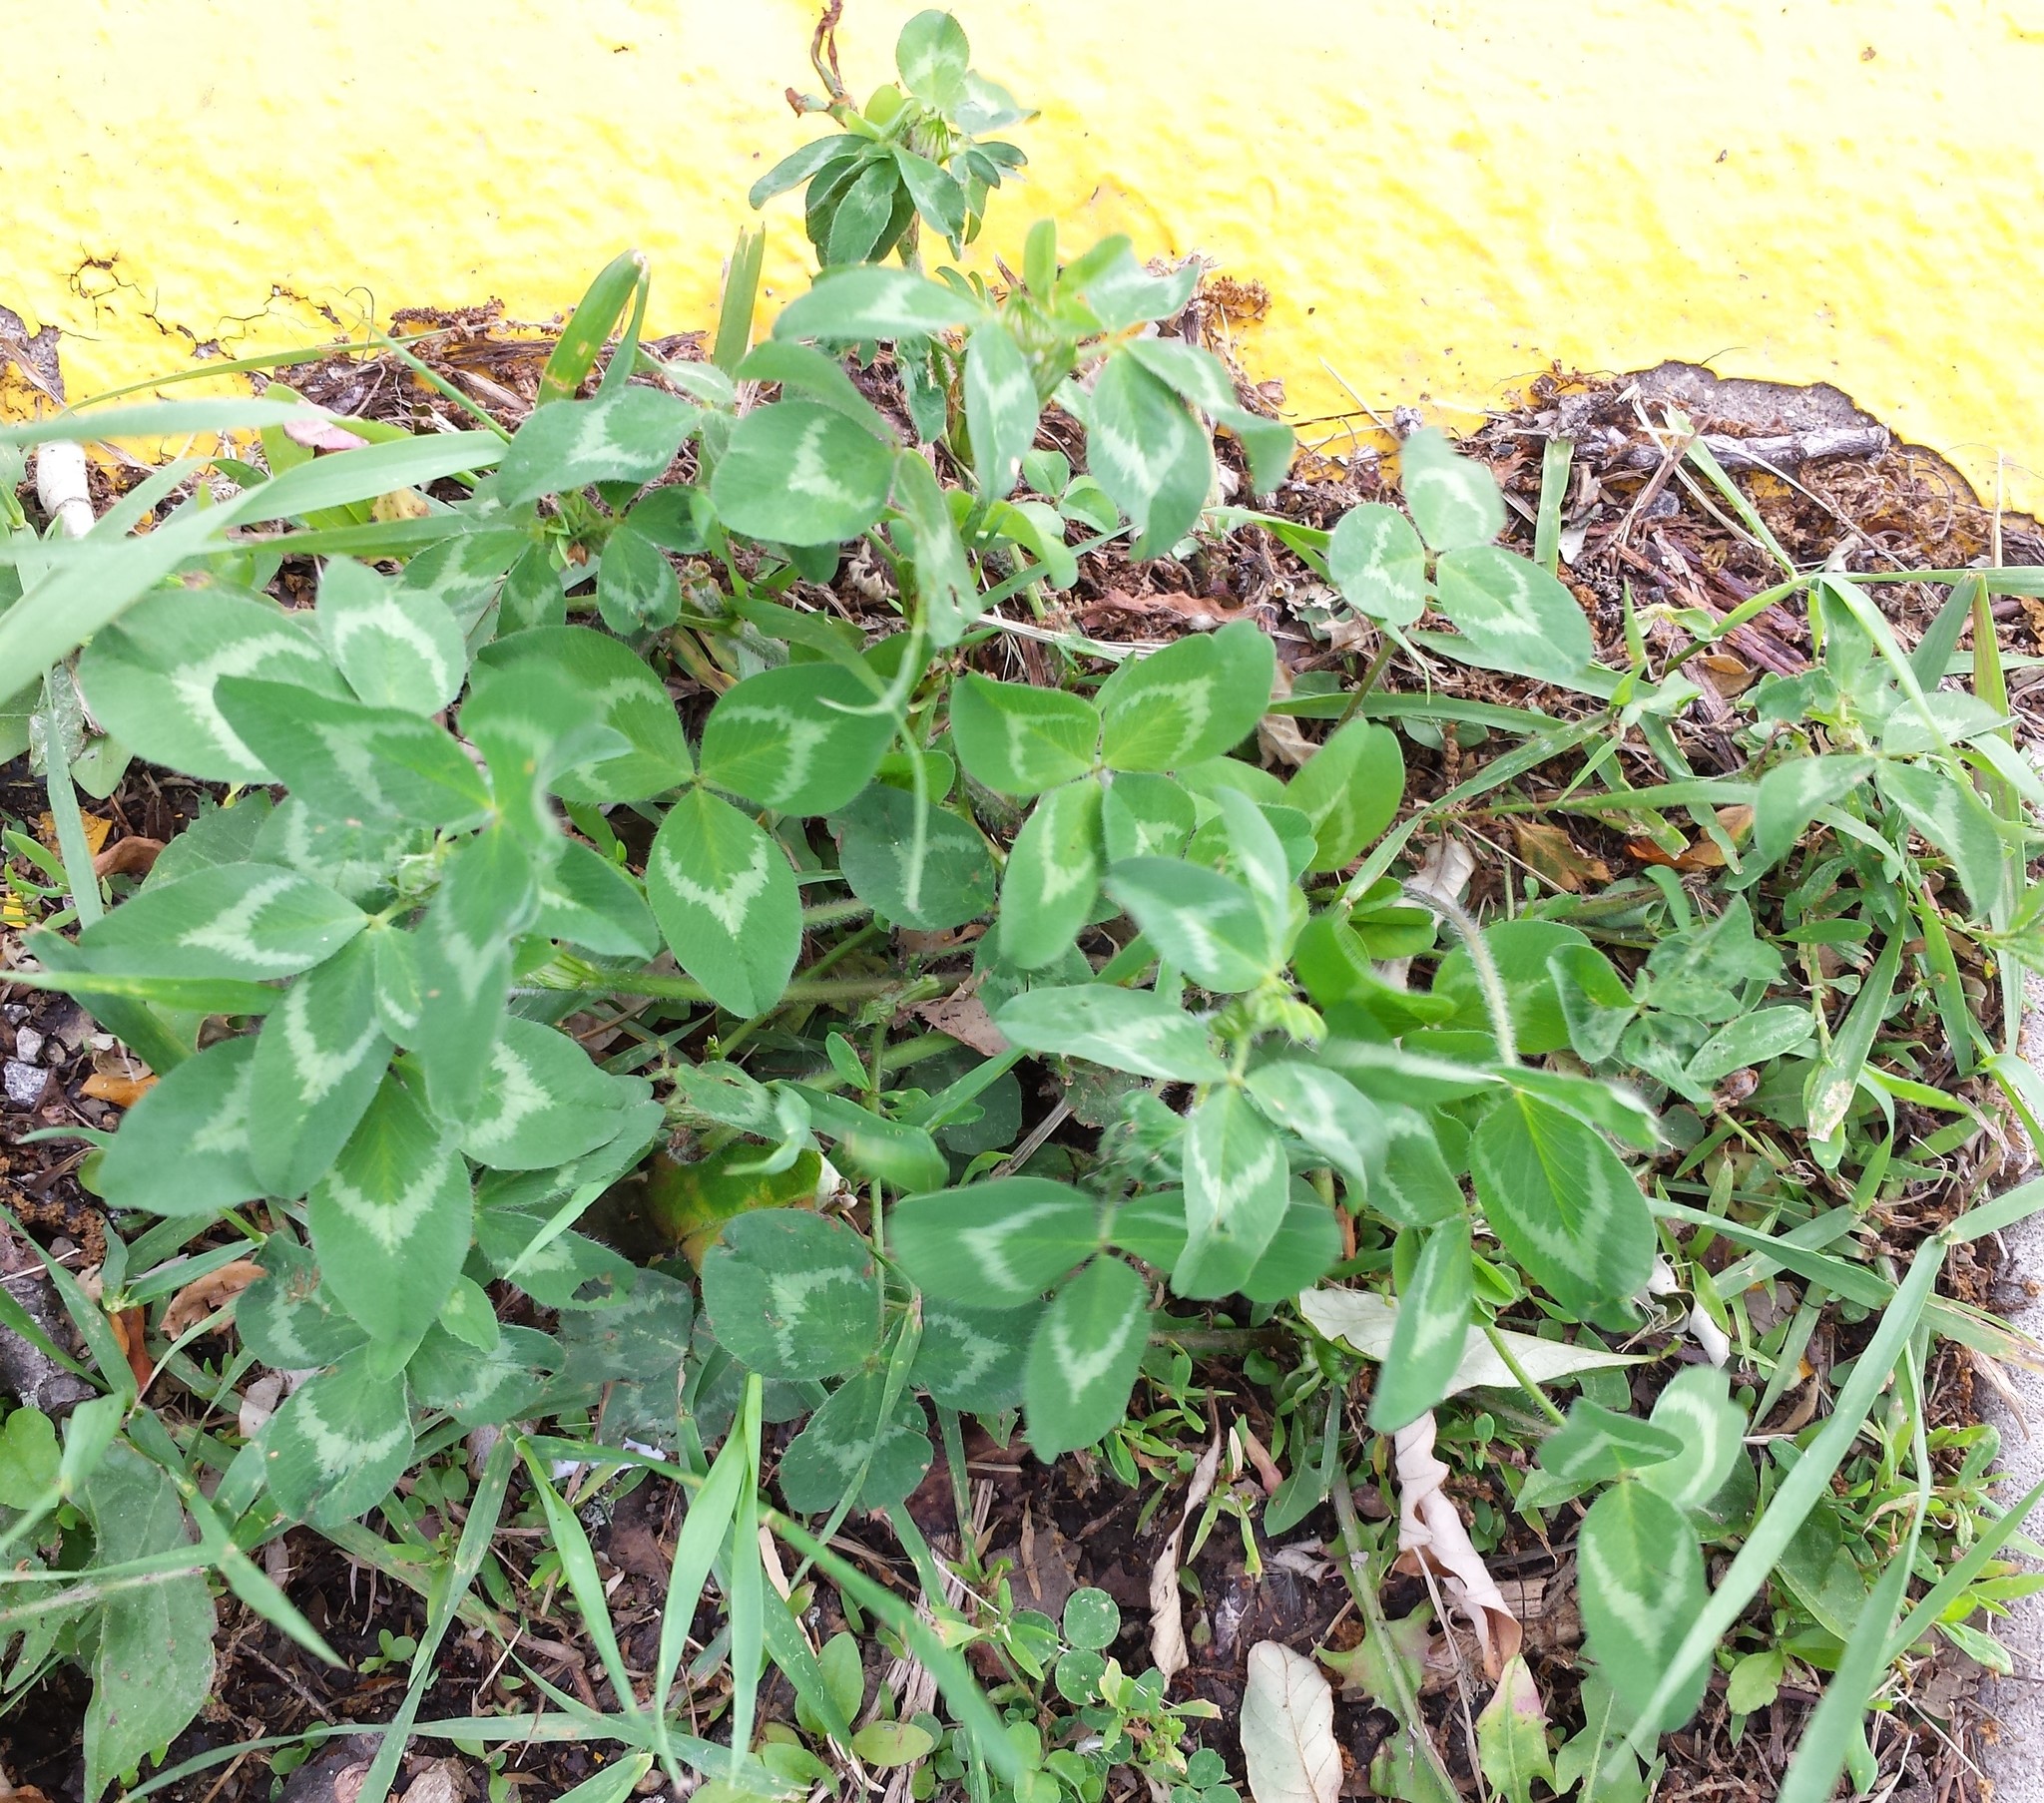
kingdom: Plantae
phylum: Tracheophyta
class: Magnoliopsida
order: Fabales
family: Fabaceae
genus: Trifolium
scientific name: Trifolium pratense
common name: Red clover
